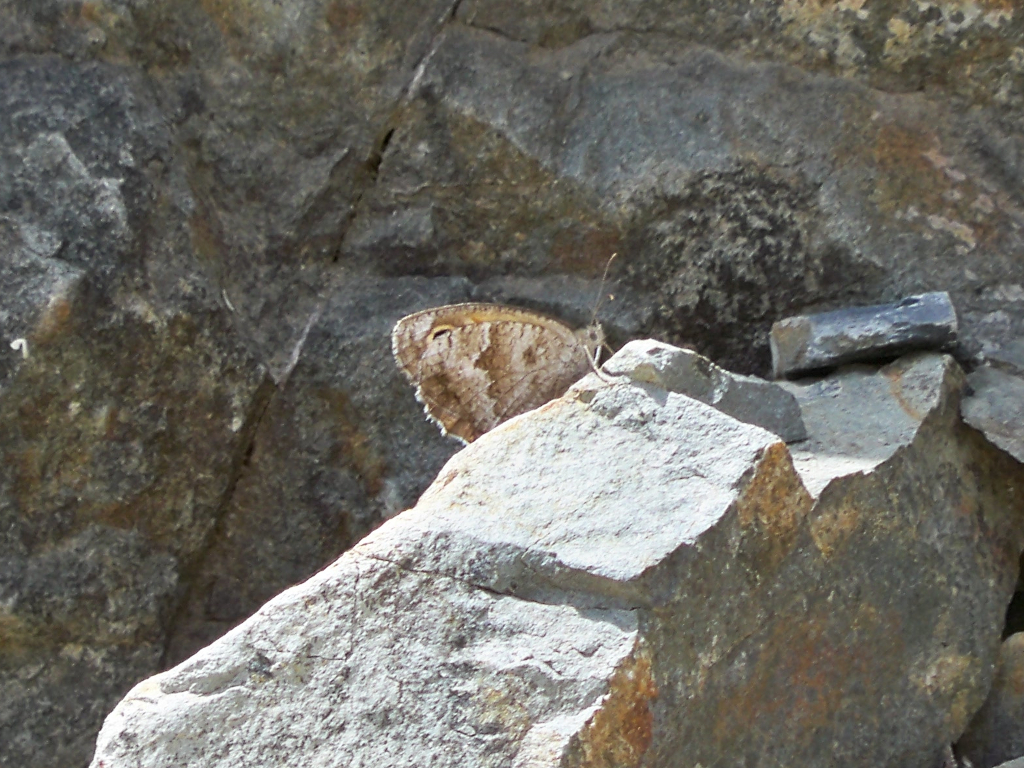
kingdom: Animalia
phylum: Arthropoda
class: Insecta
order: Lepidoptera
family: Nymphalidae
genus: Pyronia
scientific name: Pyronia cecilia
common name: Southern gatekeeper
